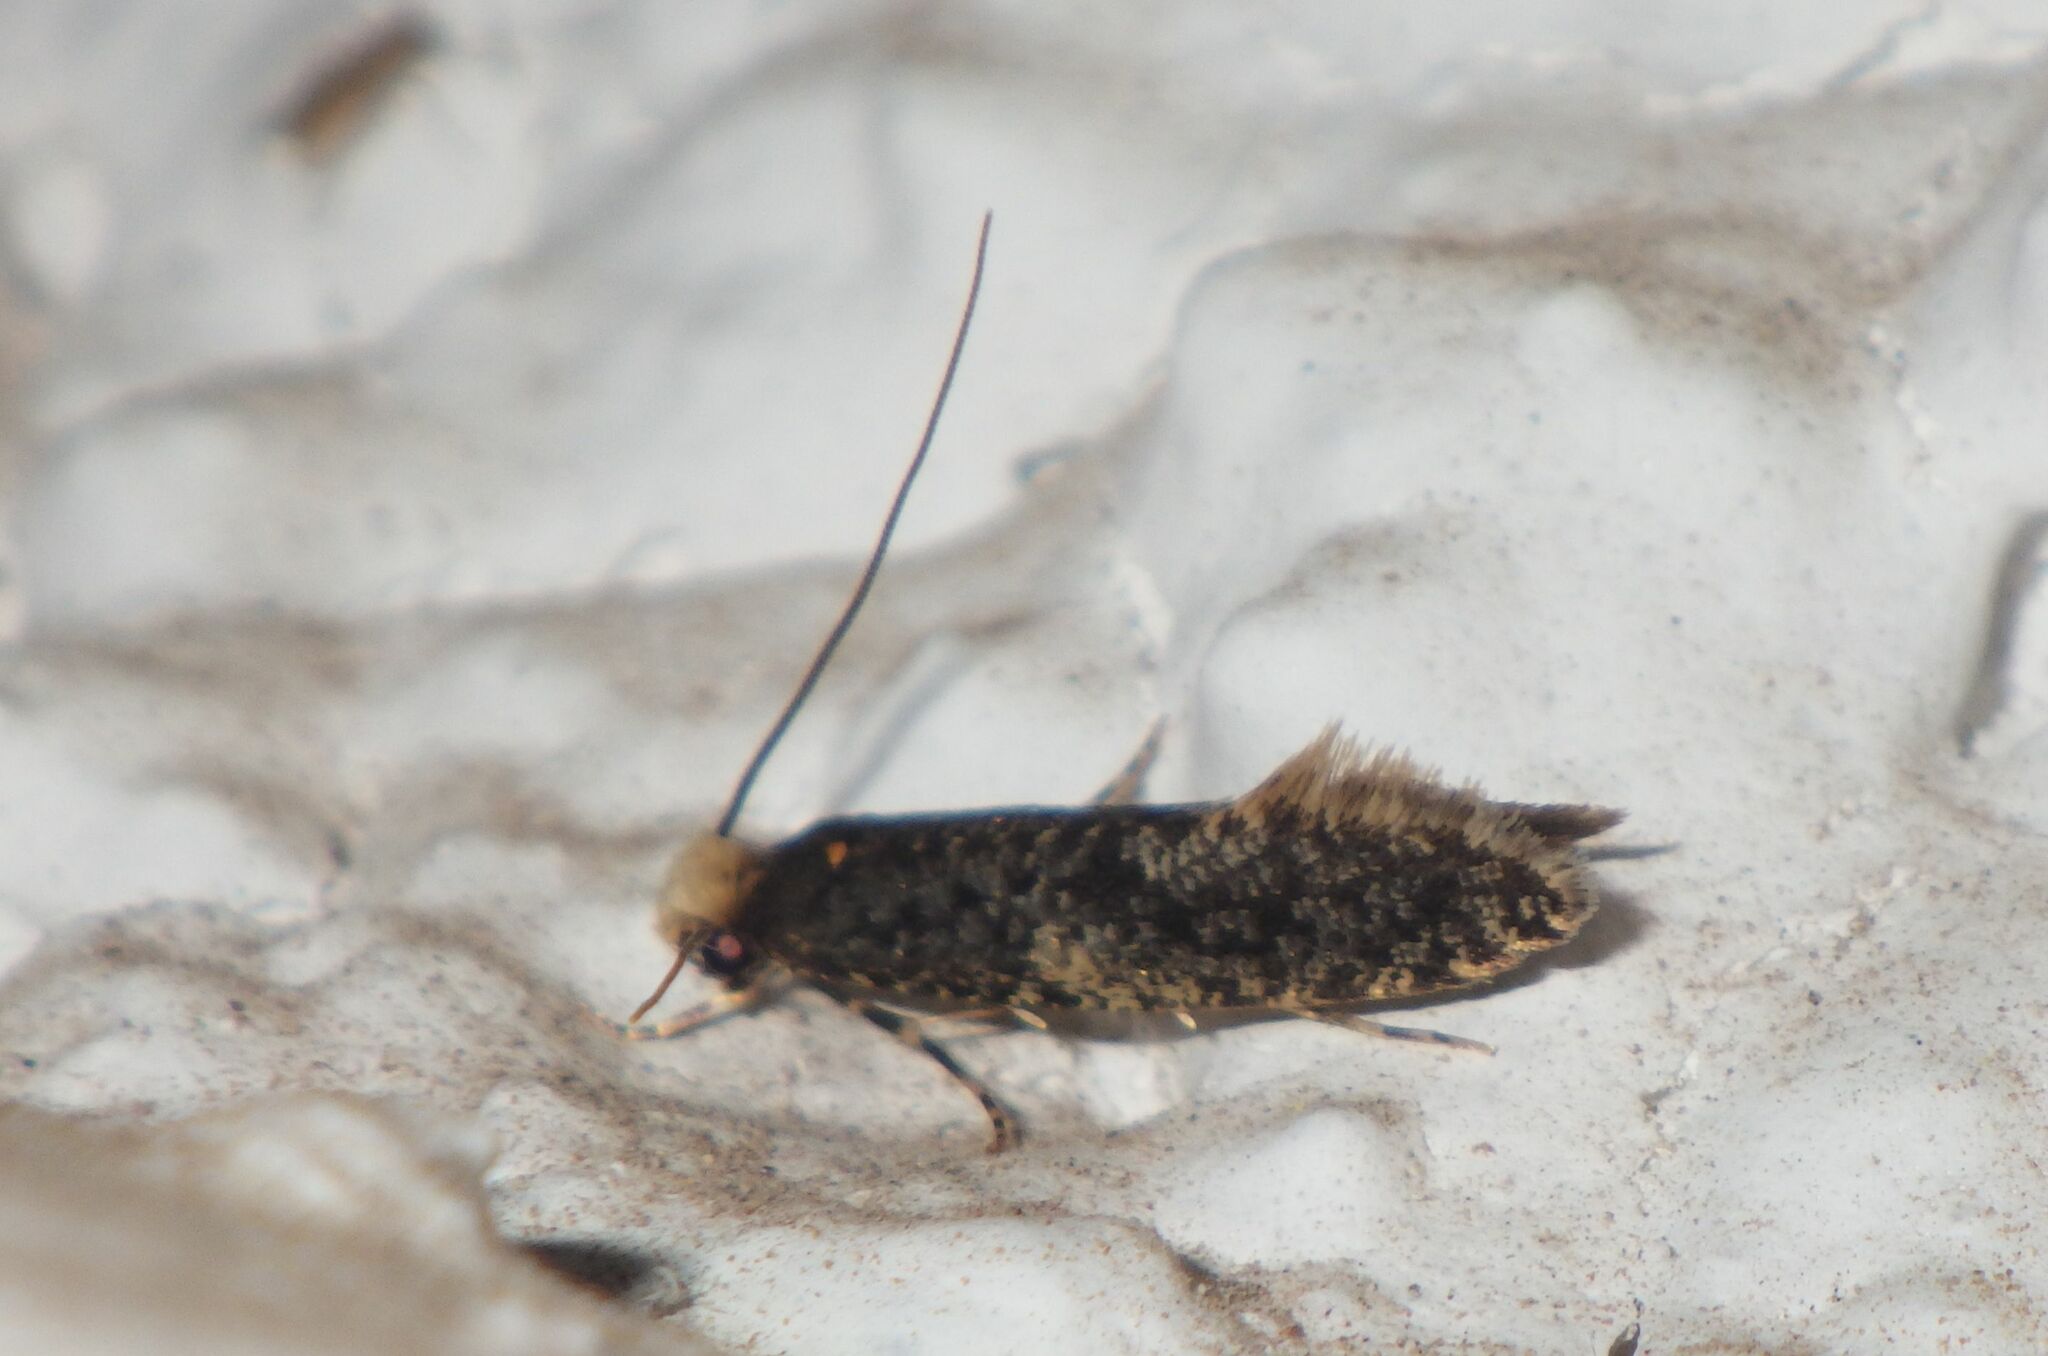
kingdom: Animalia
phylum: Arthropoda
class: Insecta
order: Lepidoptera
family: Tineidae
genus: Monopis
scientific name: Monopis laevigella
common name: Skin moth
